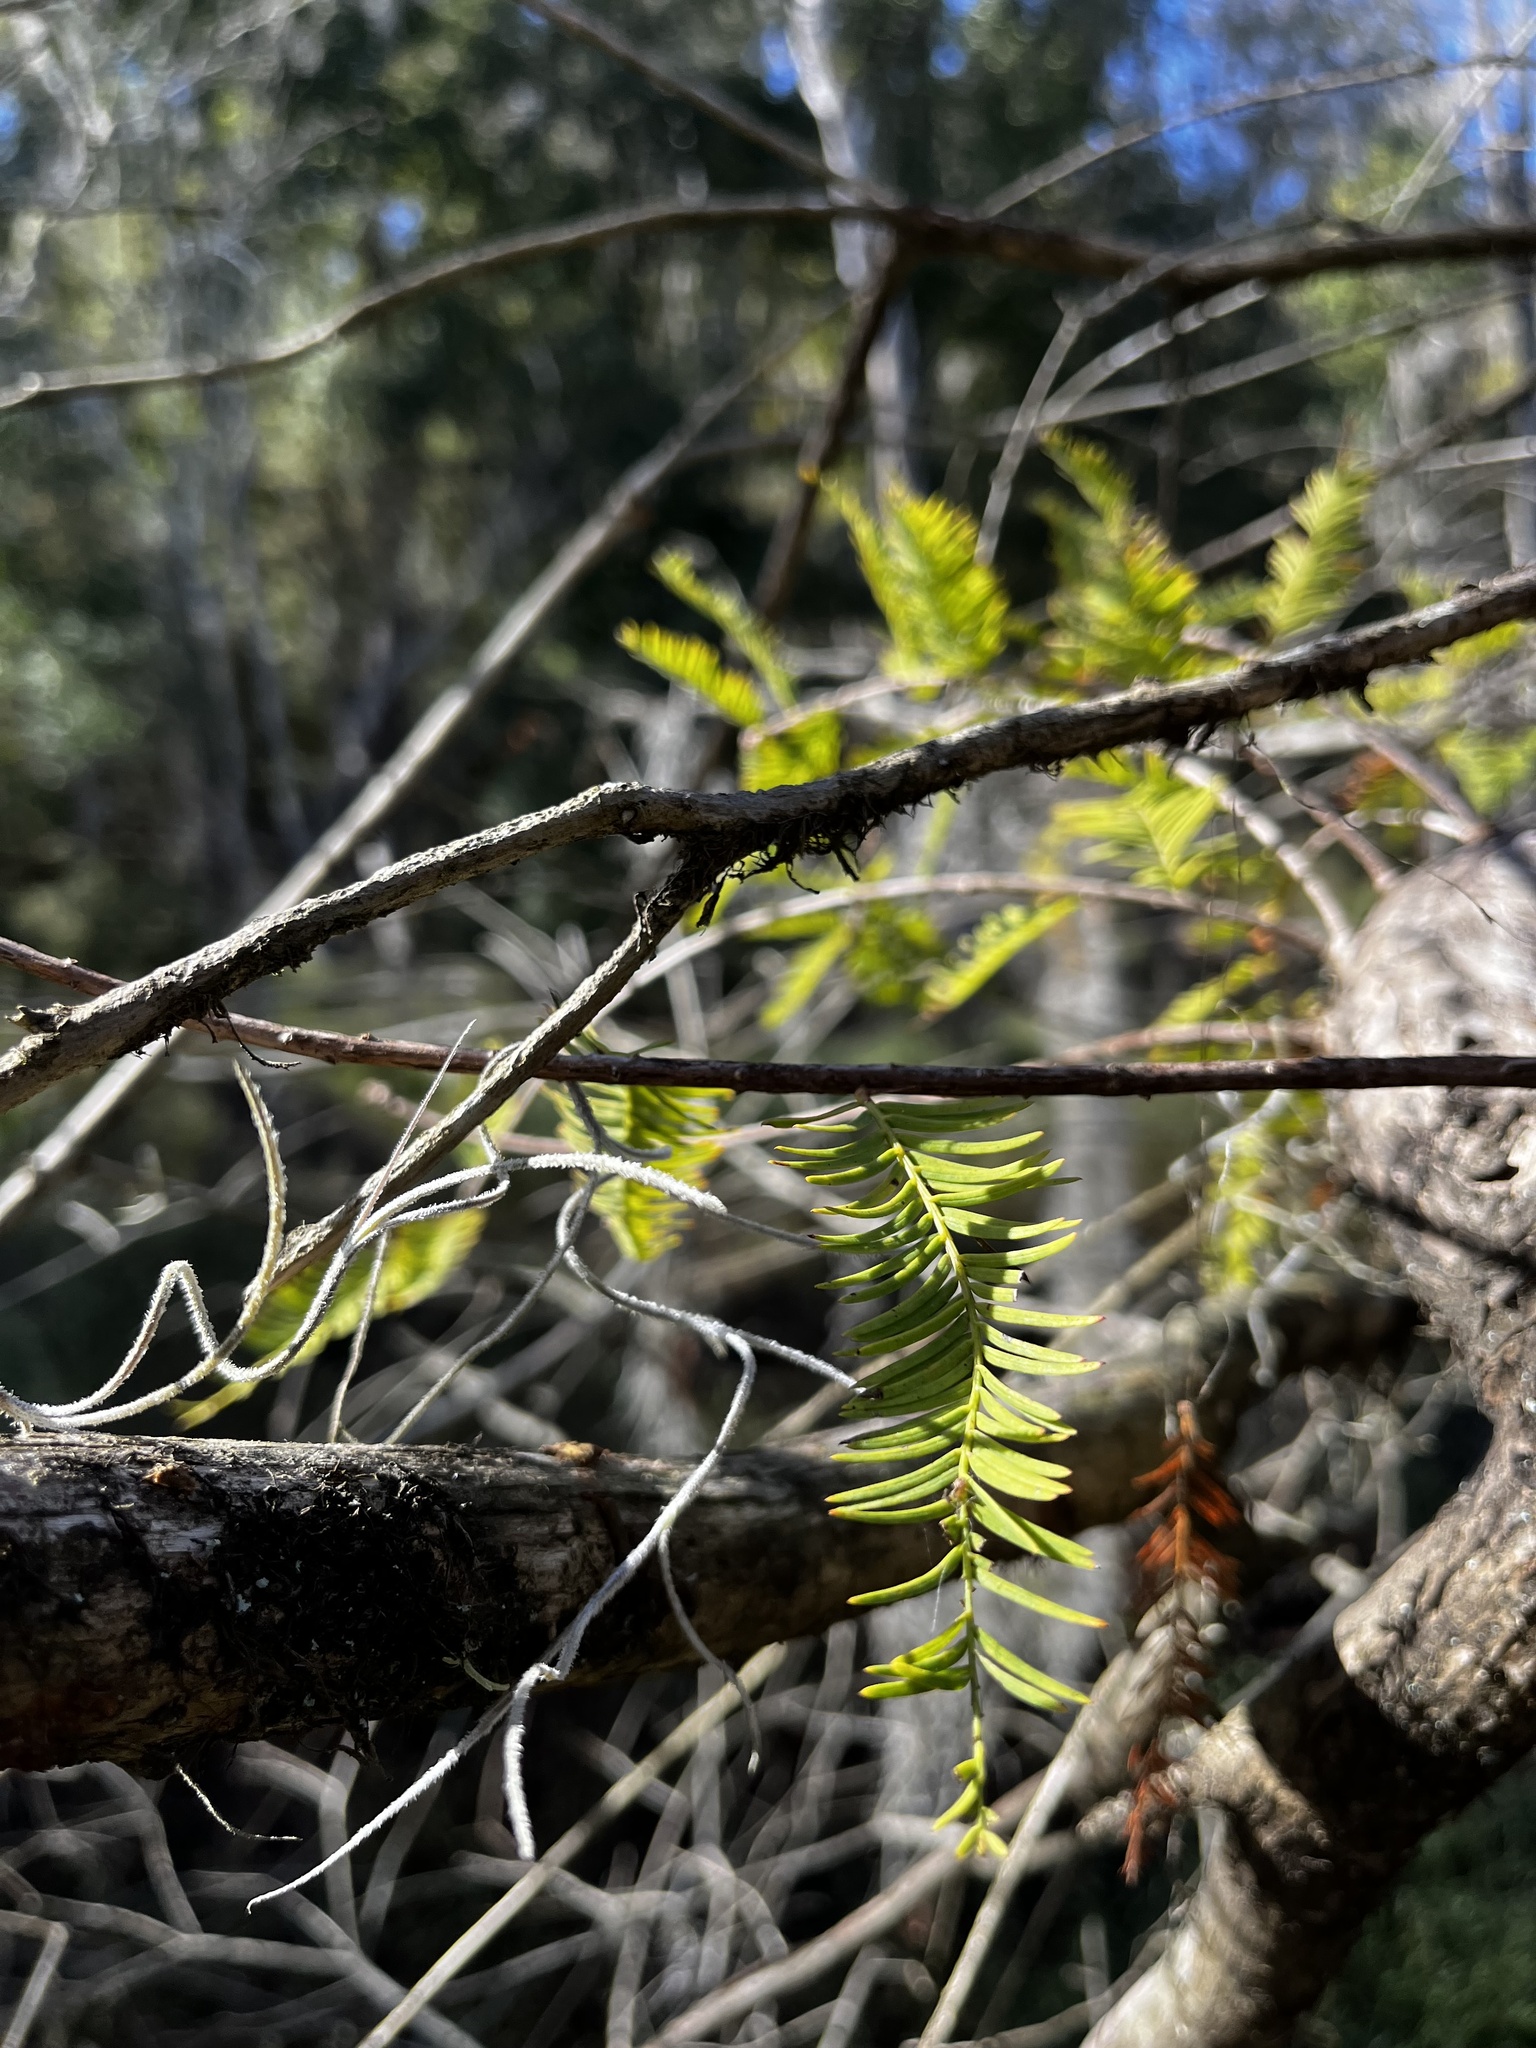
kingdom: Plantae
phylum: Tracheophyta
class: Pinopsida
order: Pinales
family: Cupressaceae
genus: Taxodium
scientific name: Taxodium distichum
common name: Bald cypress
